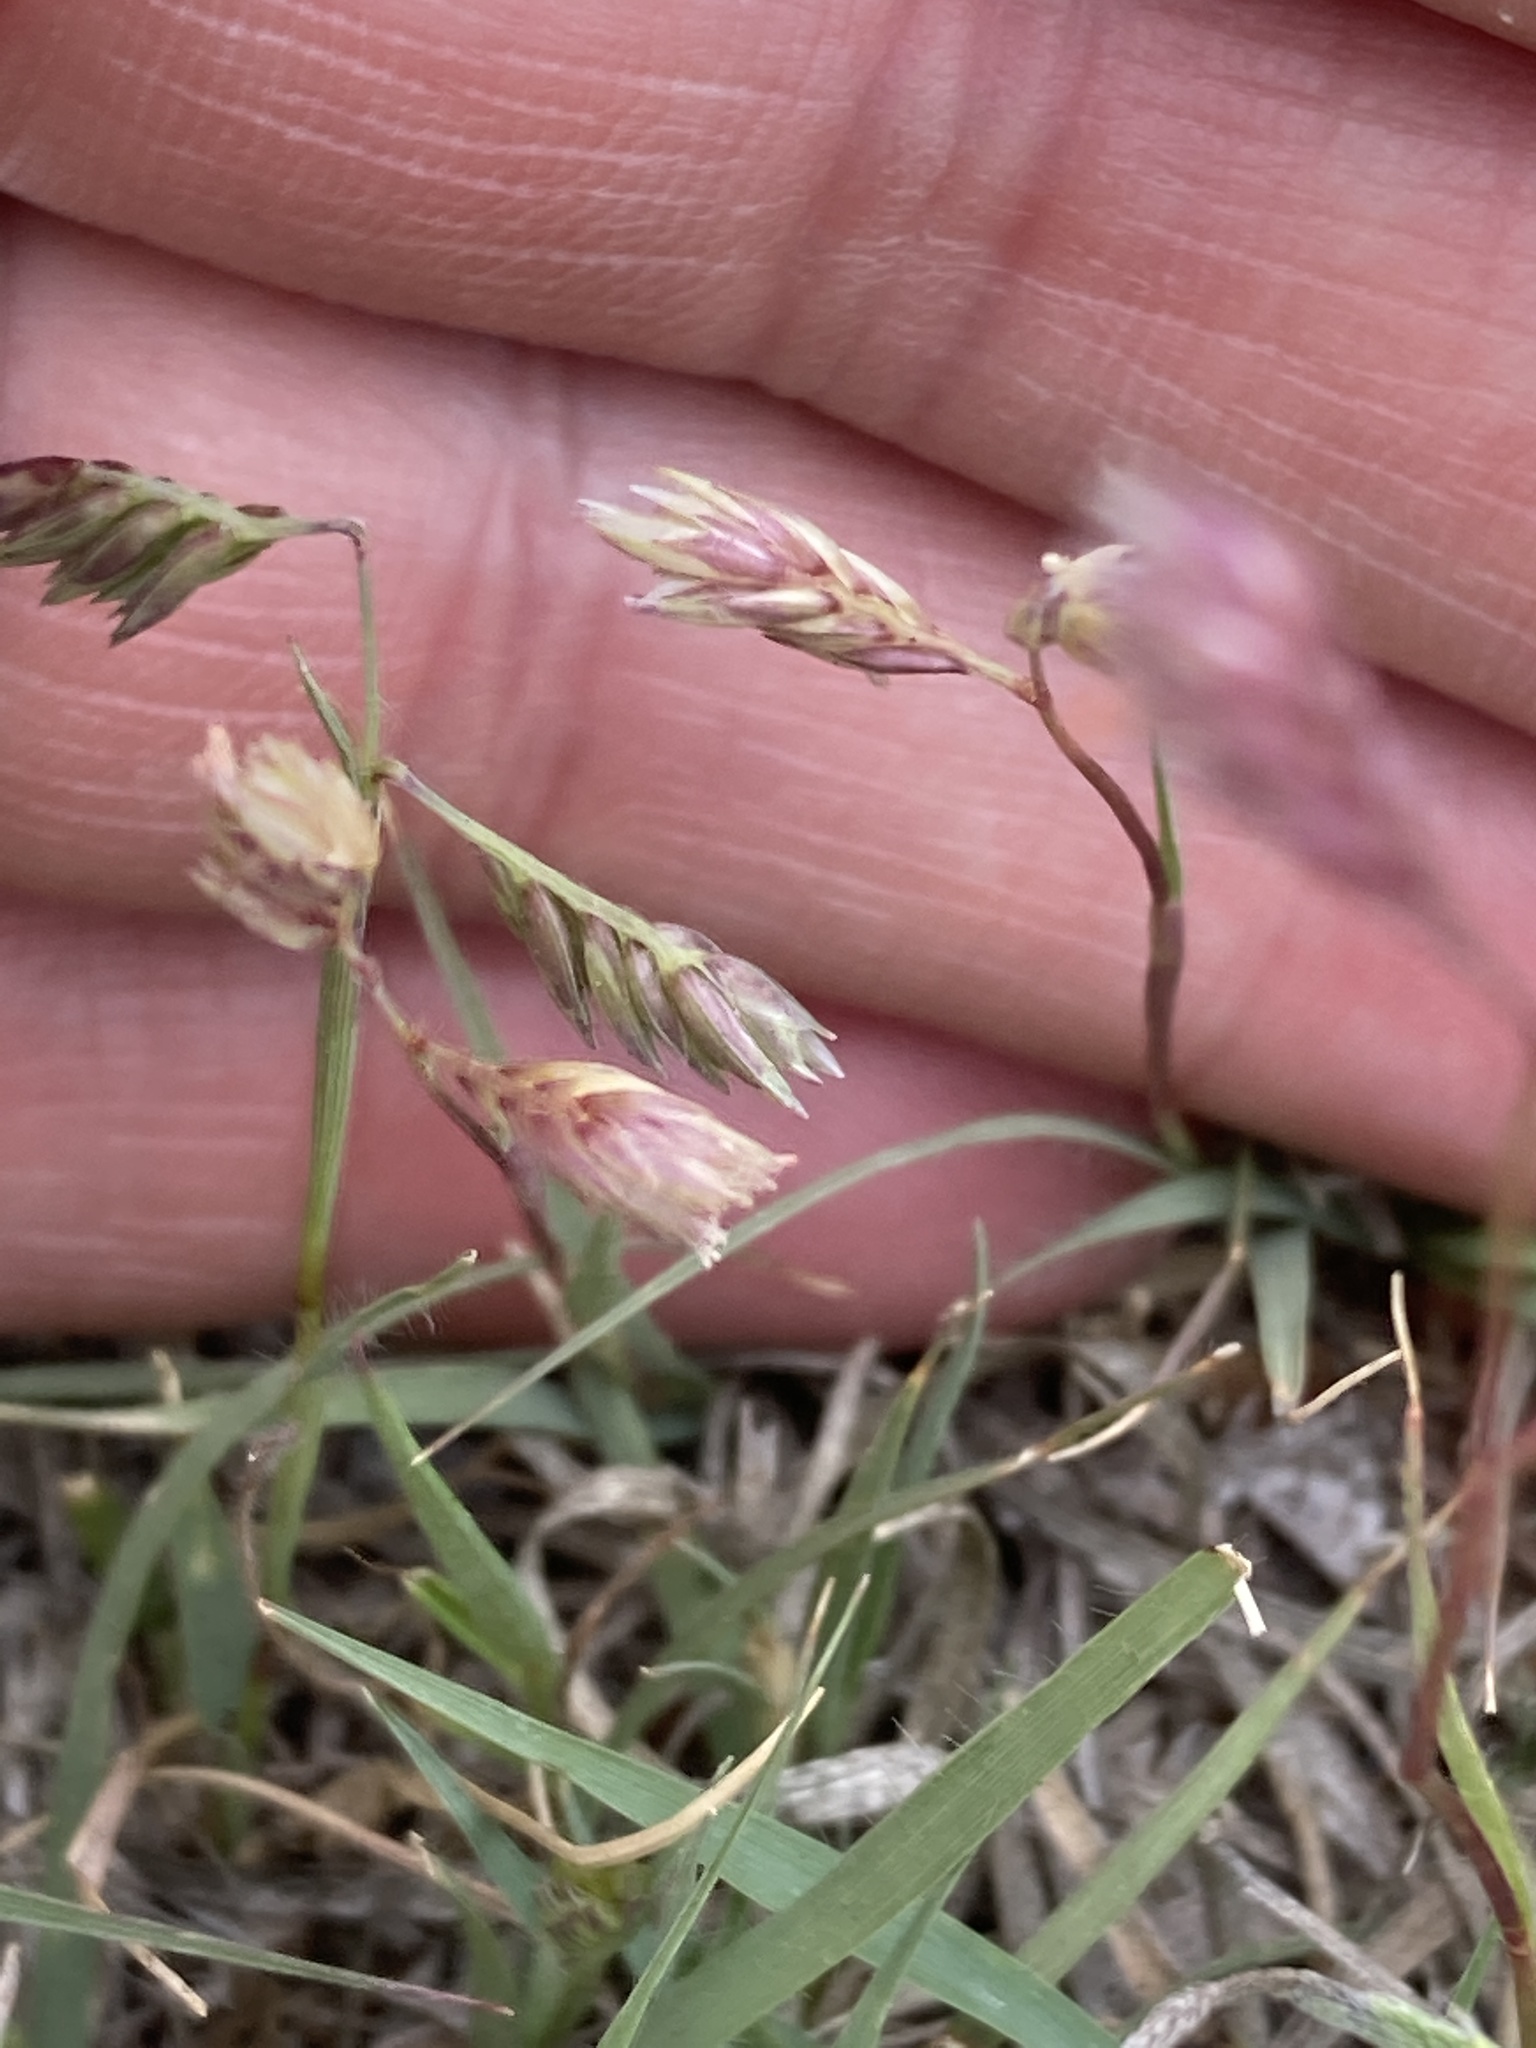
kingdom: Plantae
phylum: Tracheophyta
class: Liliopsida
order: Poales
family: Poaceae
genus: Bouteloua
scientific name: Bouteloua dactyloides
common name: Buffalo grass
